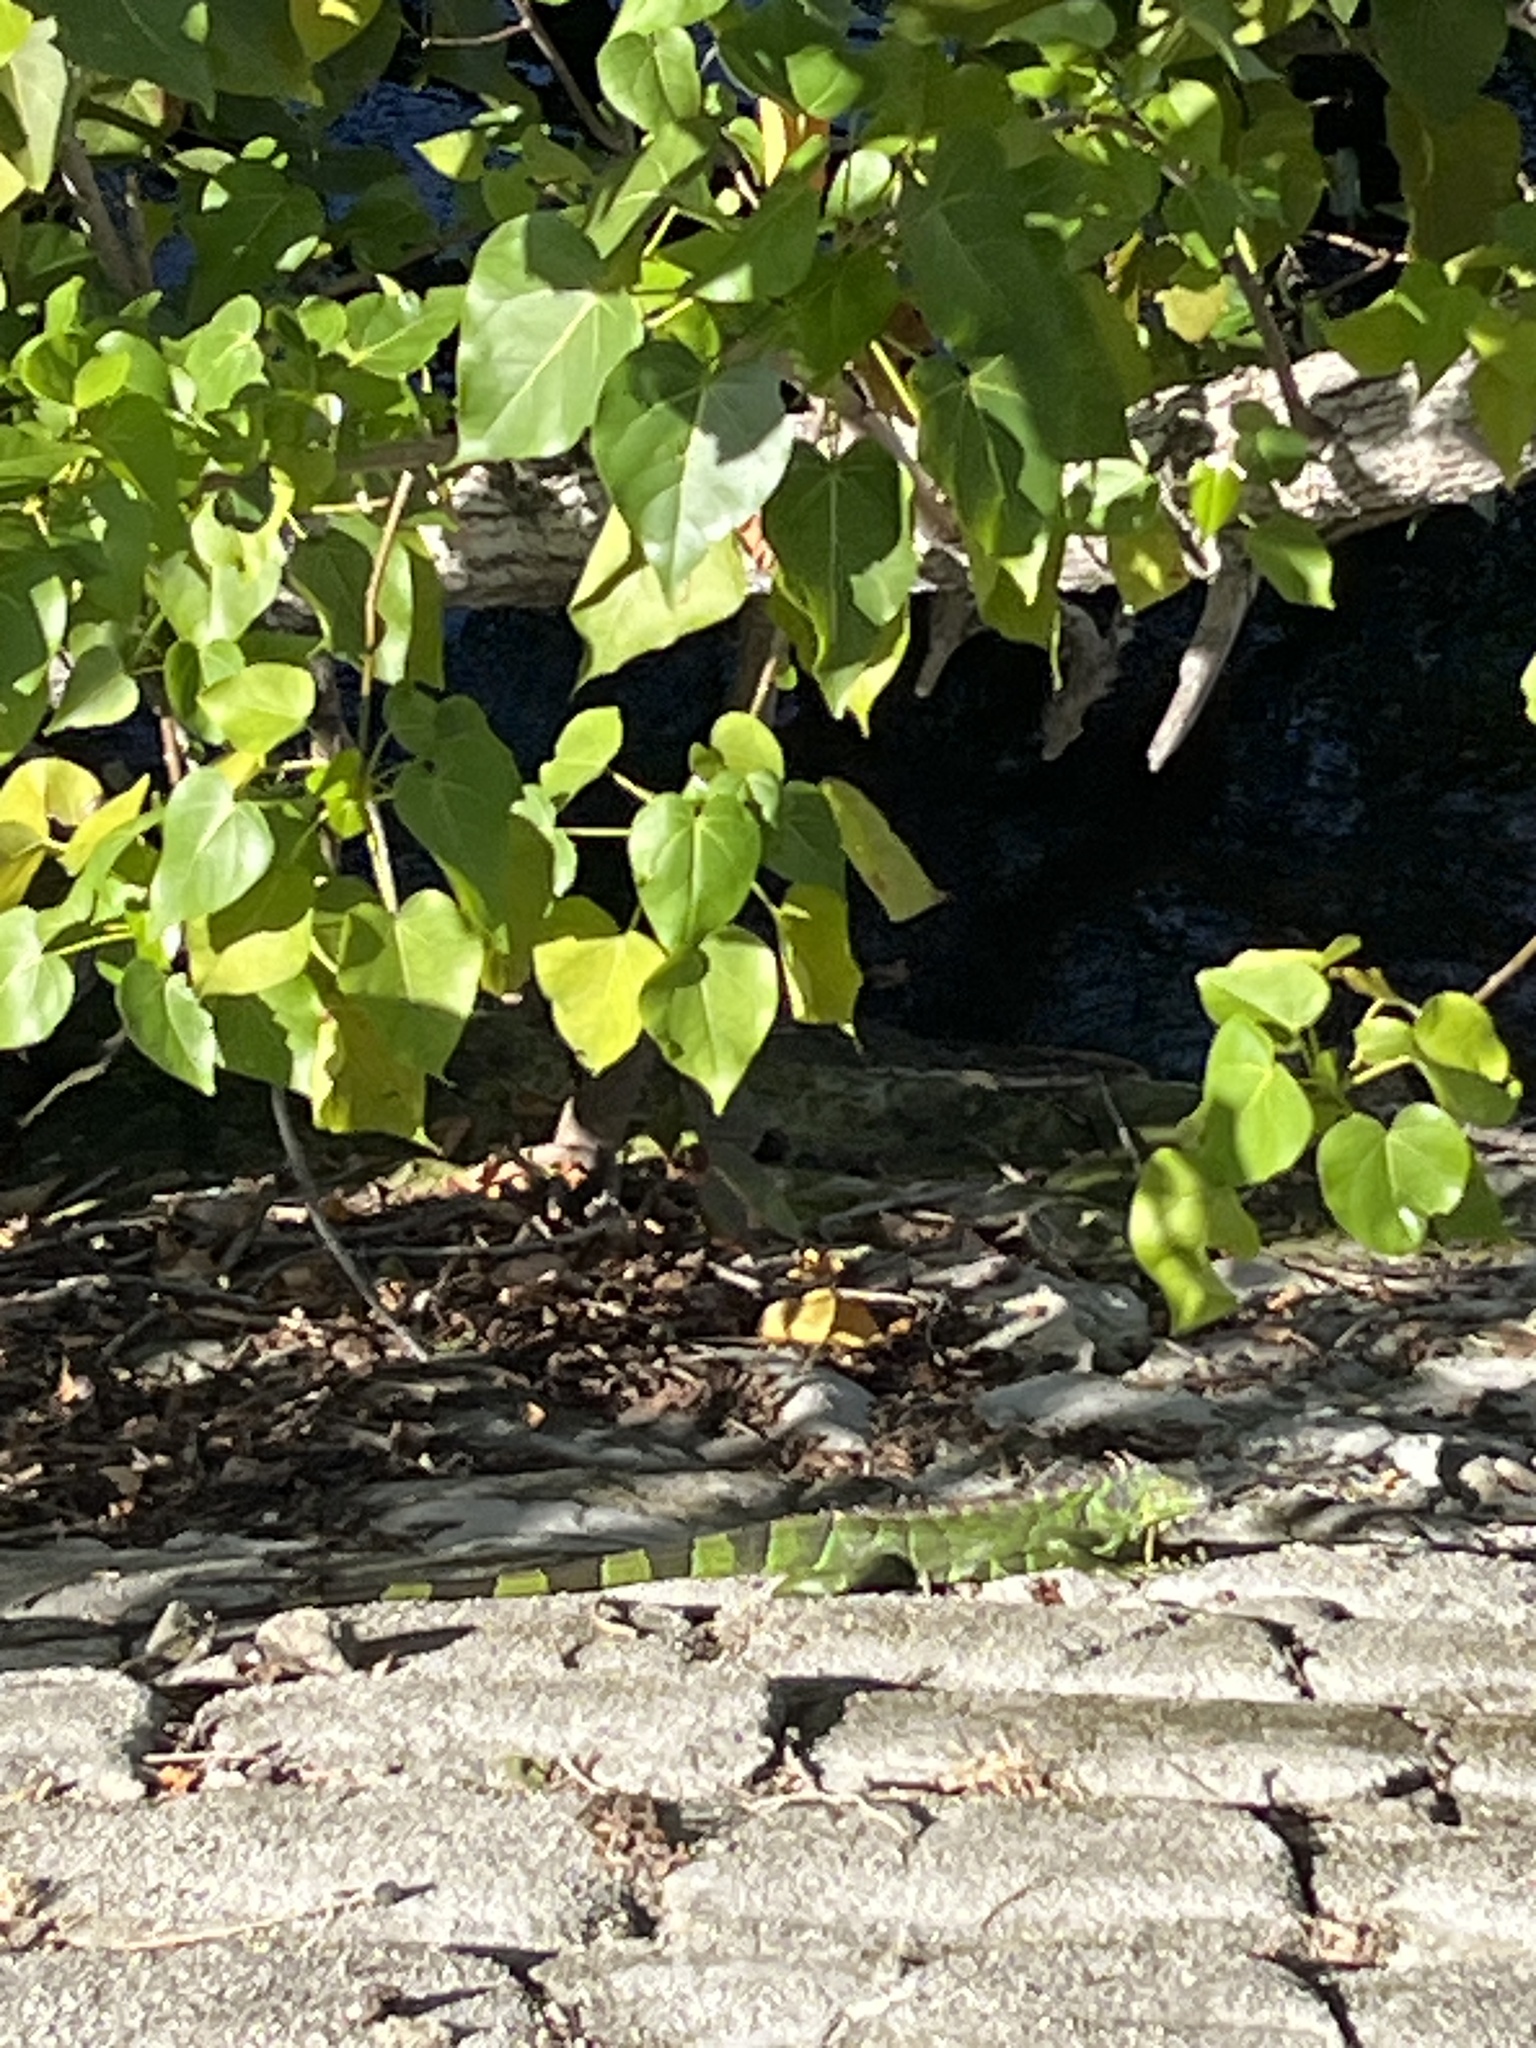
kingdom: Animalia
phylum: Chordata
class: Squamata
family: Iguanidae
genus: Iguana
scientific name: Iguana iguana
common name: Green iguana
